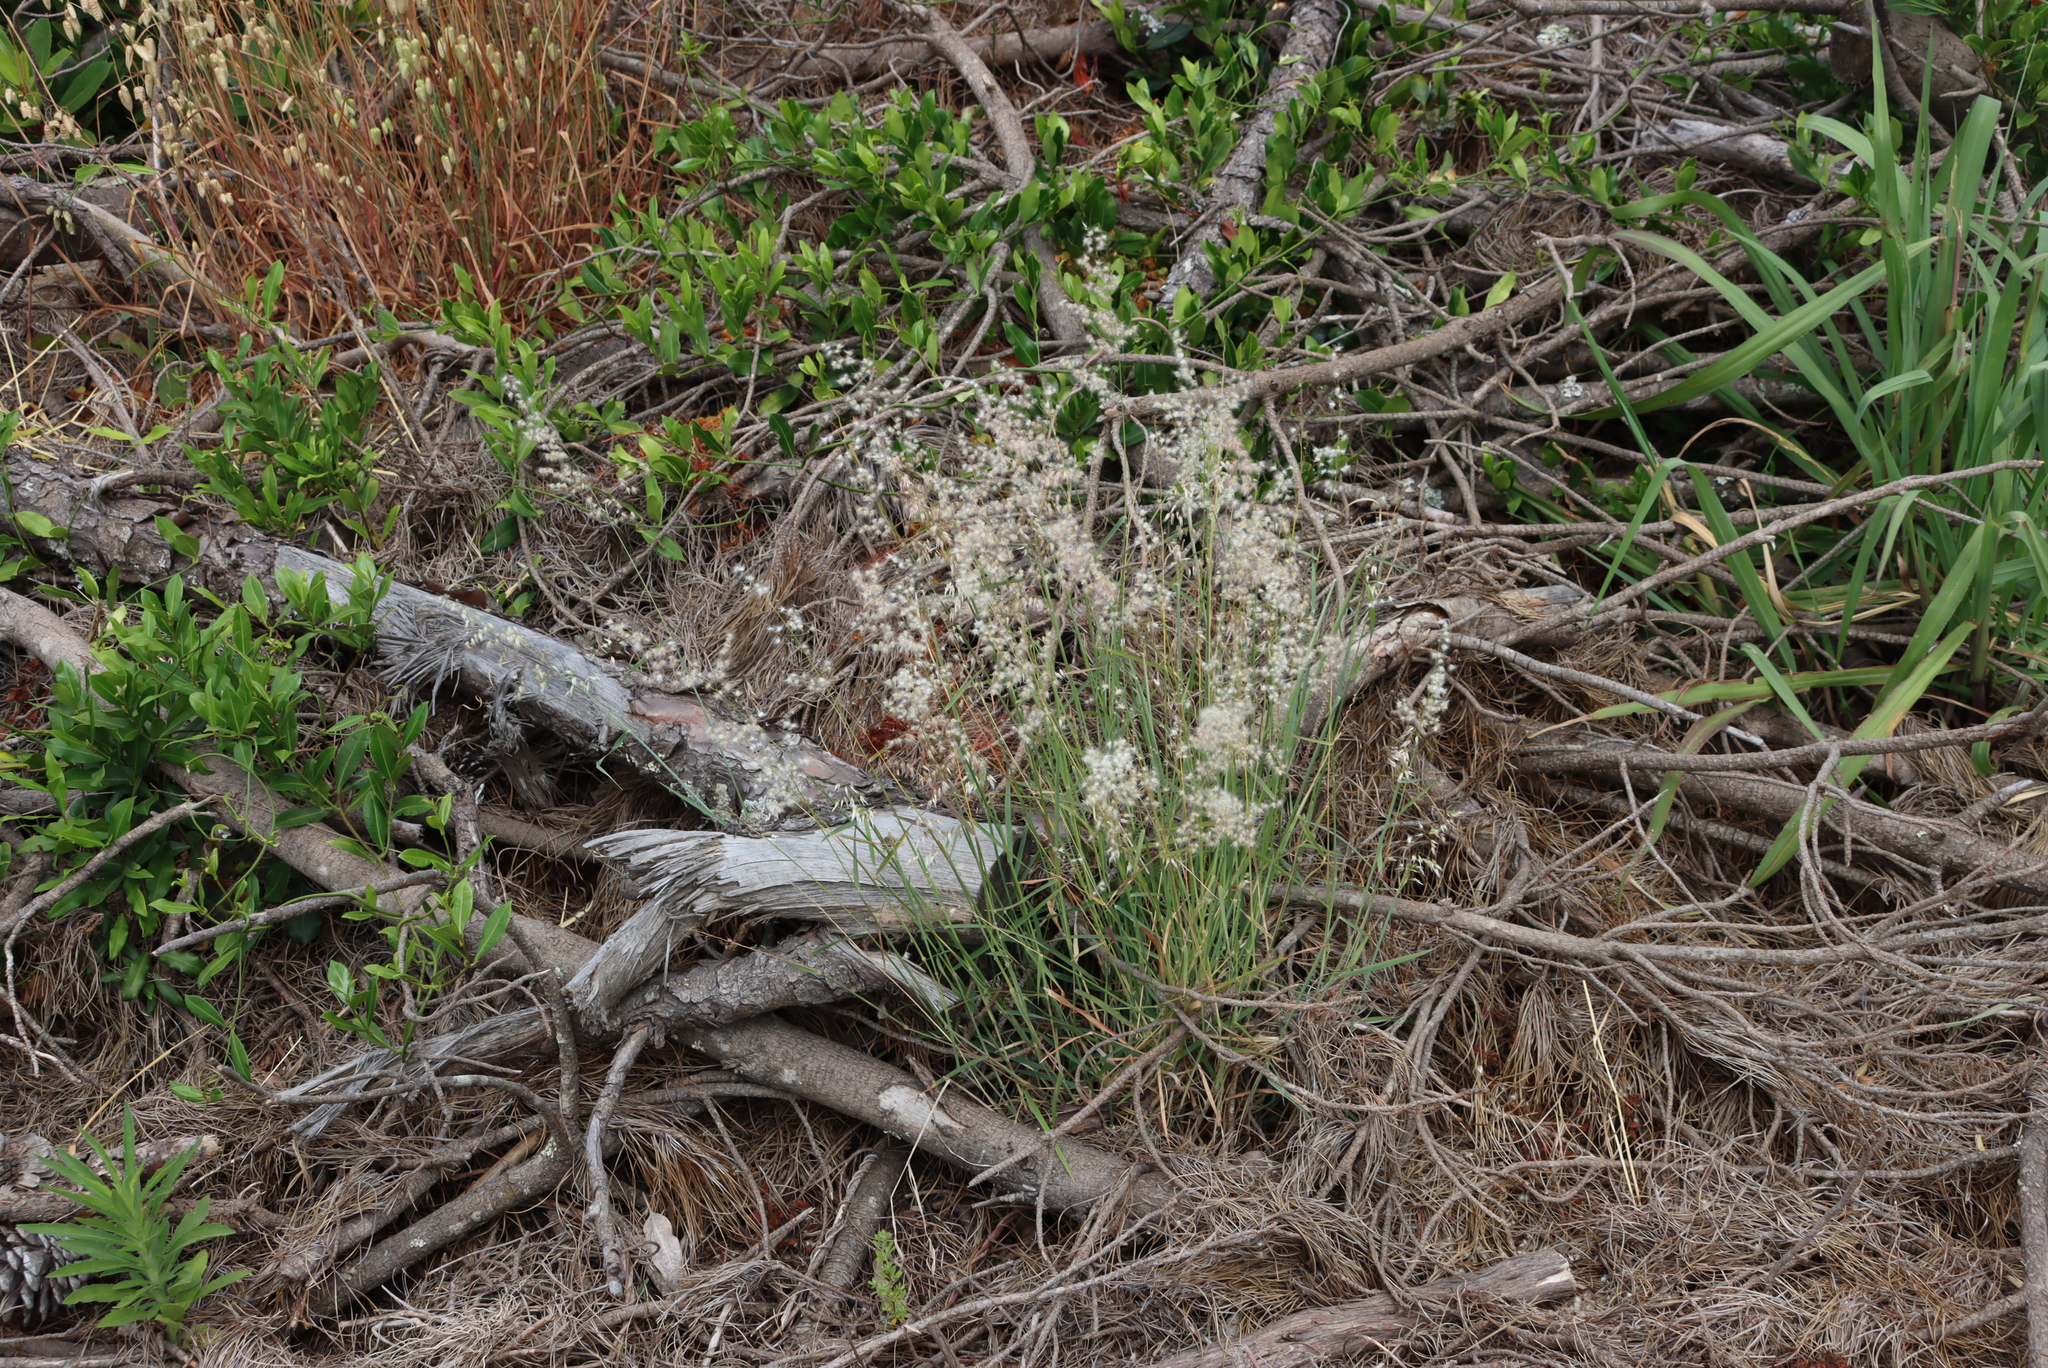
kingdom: Plantae
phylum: Tracheophyta
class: Liliopsida
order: Poales
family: Poaceae
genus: Melinis
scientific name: Melinis repens
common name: Rose natal grass
